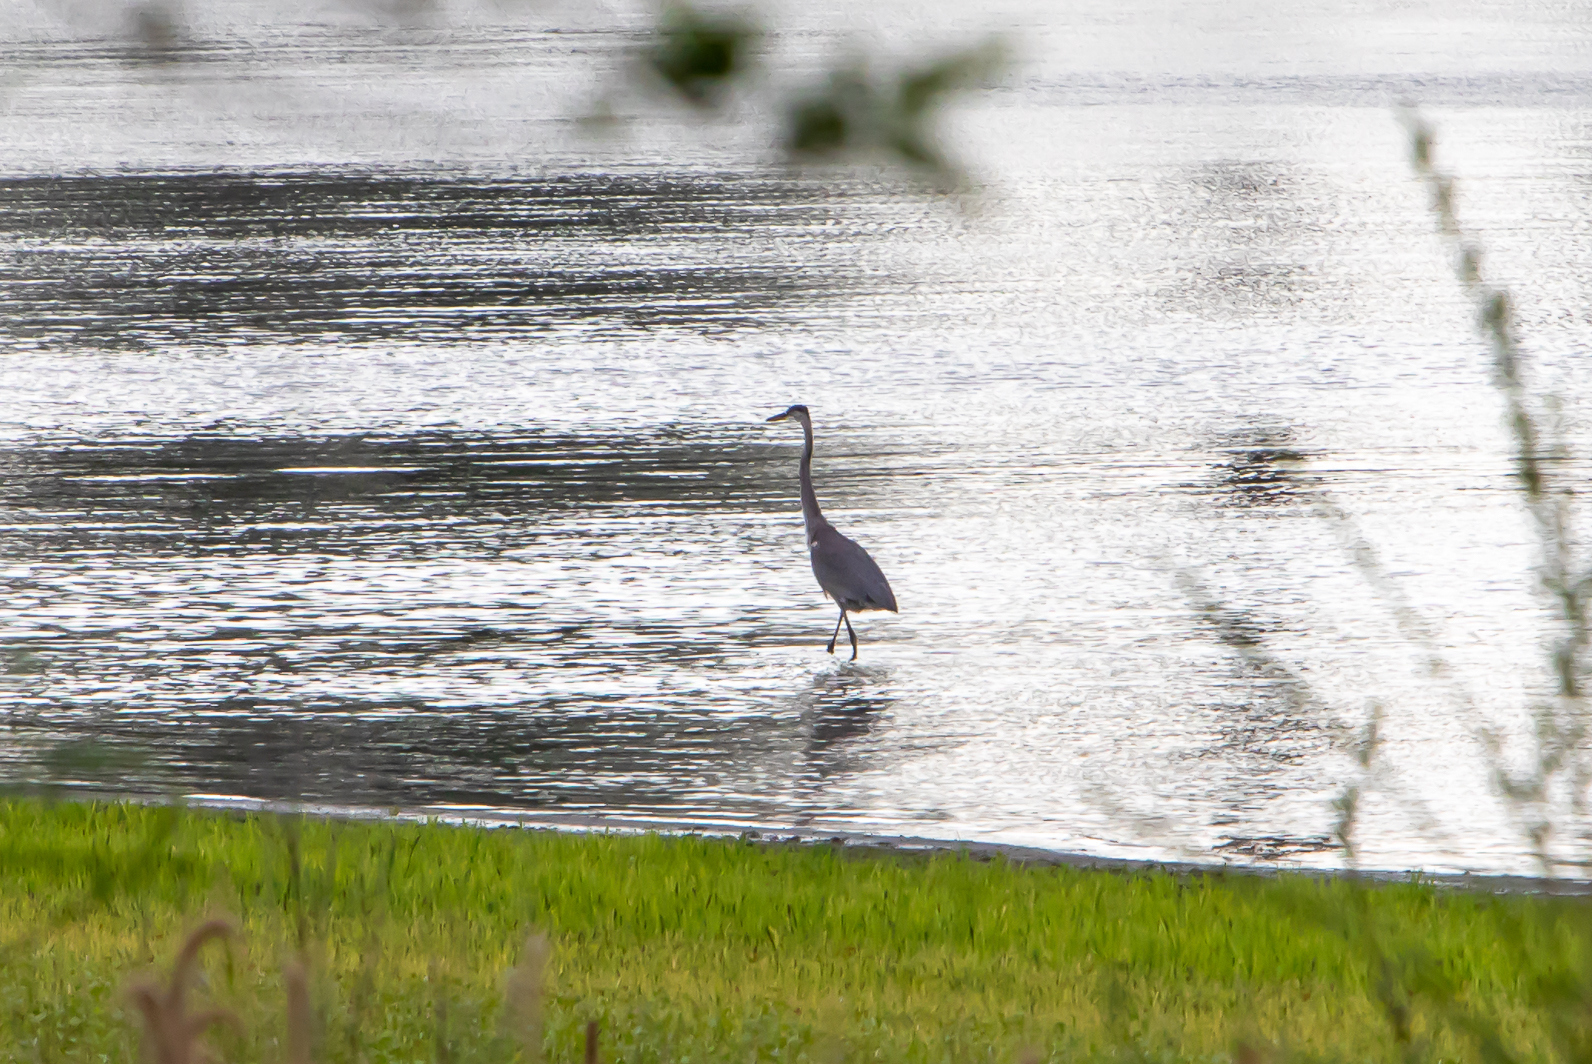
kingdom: Animalia
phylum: Chordata
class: Aves
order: Pelecaniformes
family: Ardeidae
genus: Ardea
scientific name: Ardea herodias
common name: Great blue heron
